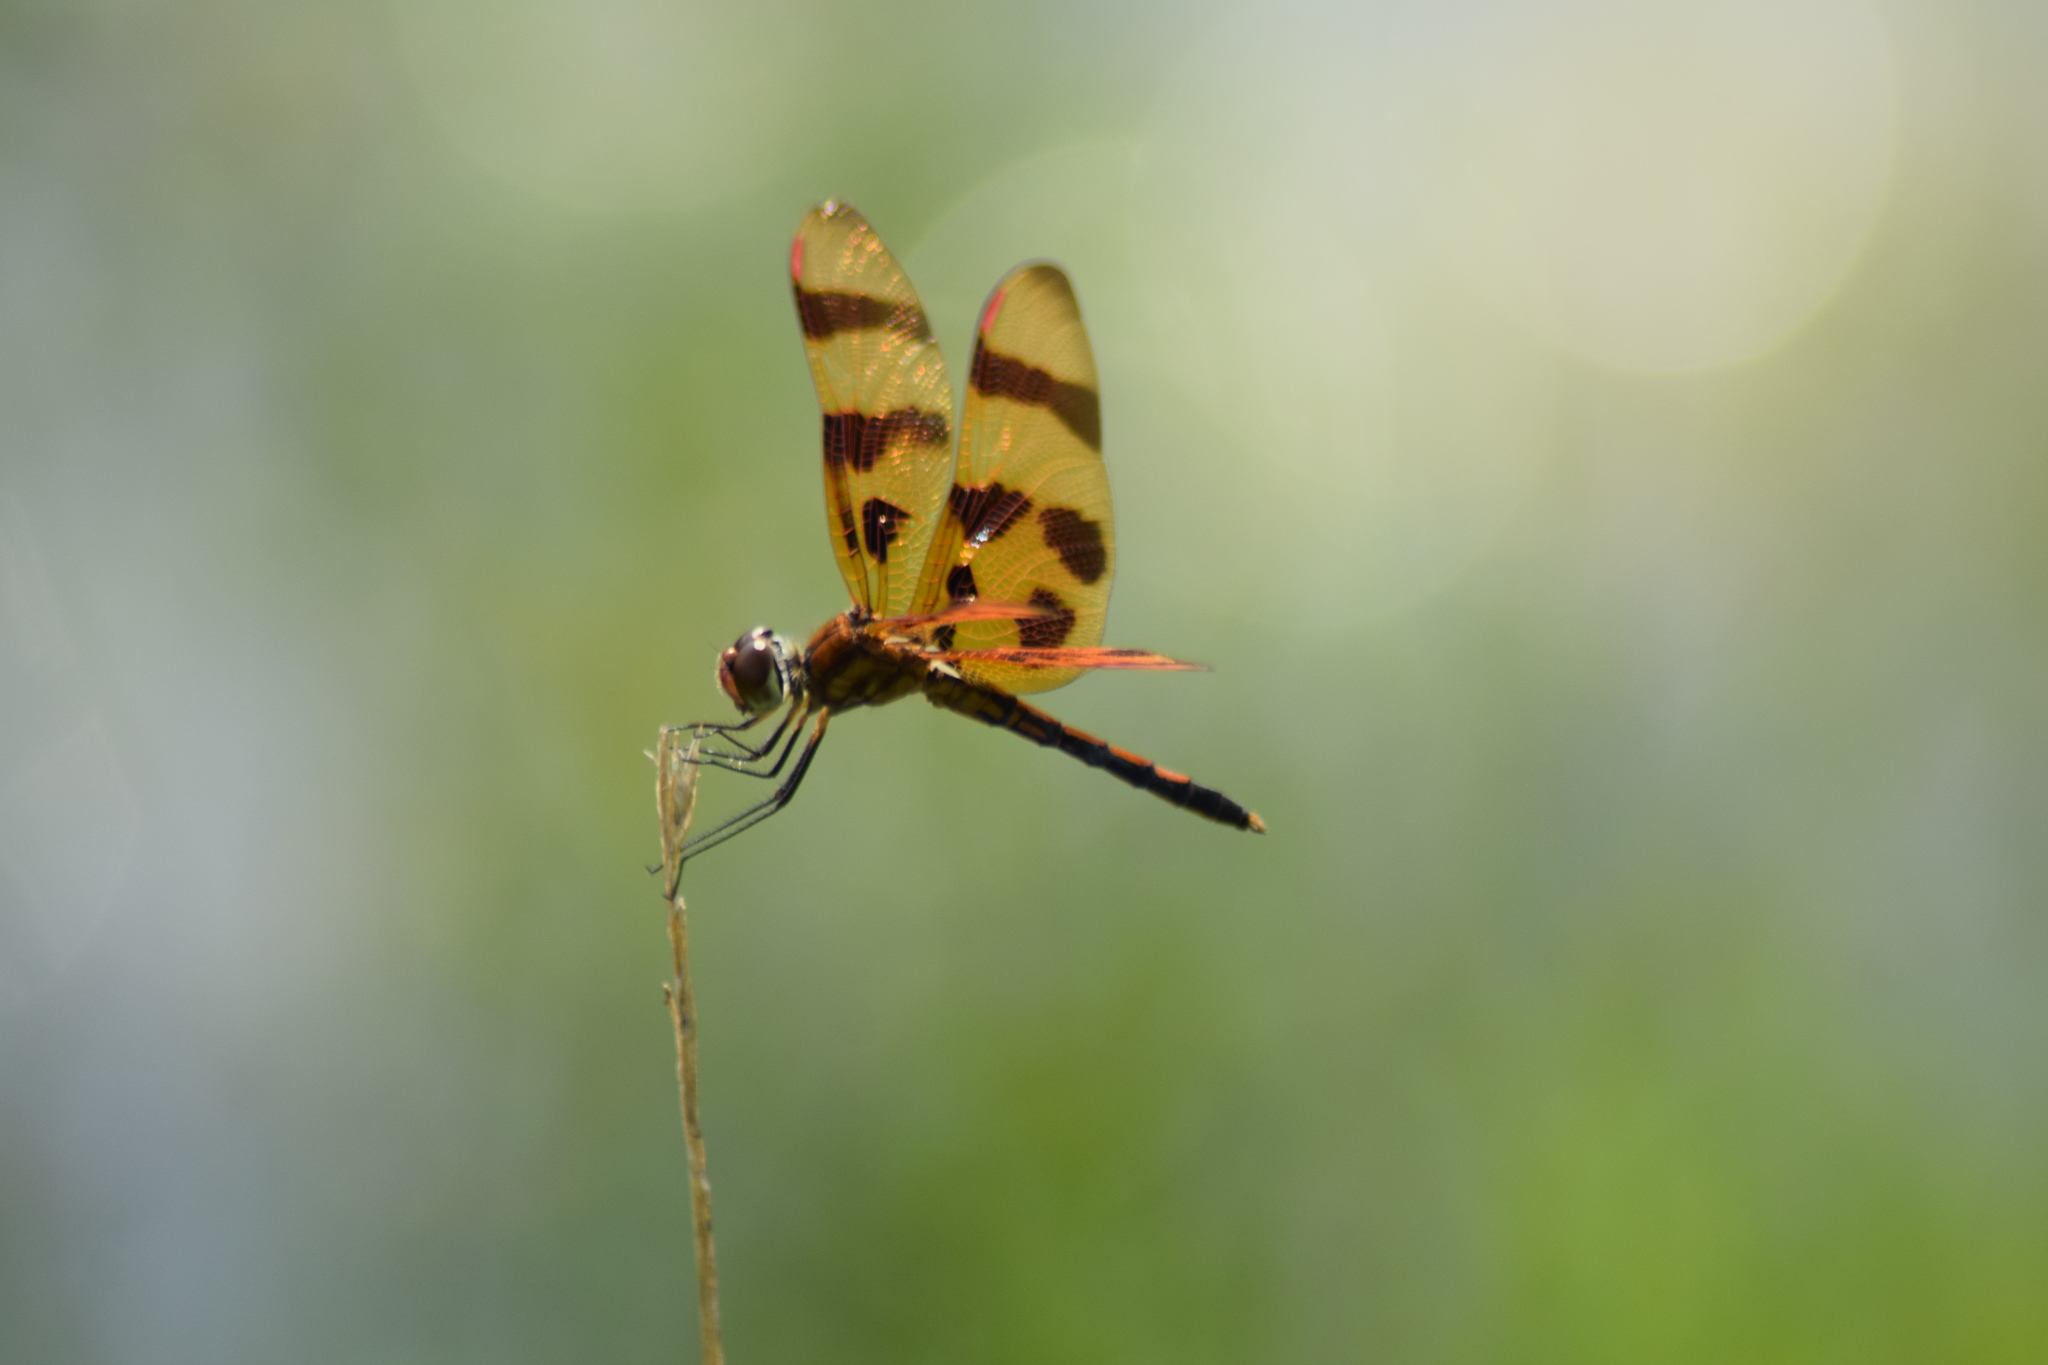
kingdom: Animalia
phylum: Arthropoda
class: Insecta
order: Odonata
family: Libellulidae
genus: Celithemis
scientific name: Celithemis eponina
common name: Halloween pennant
